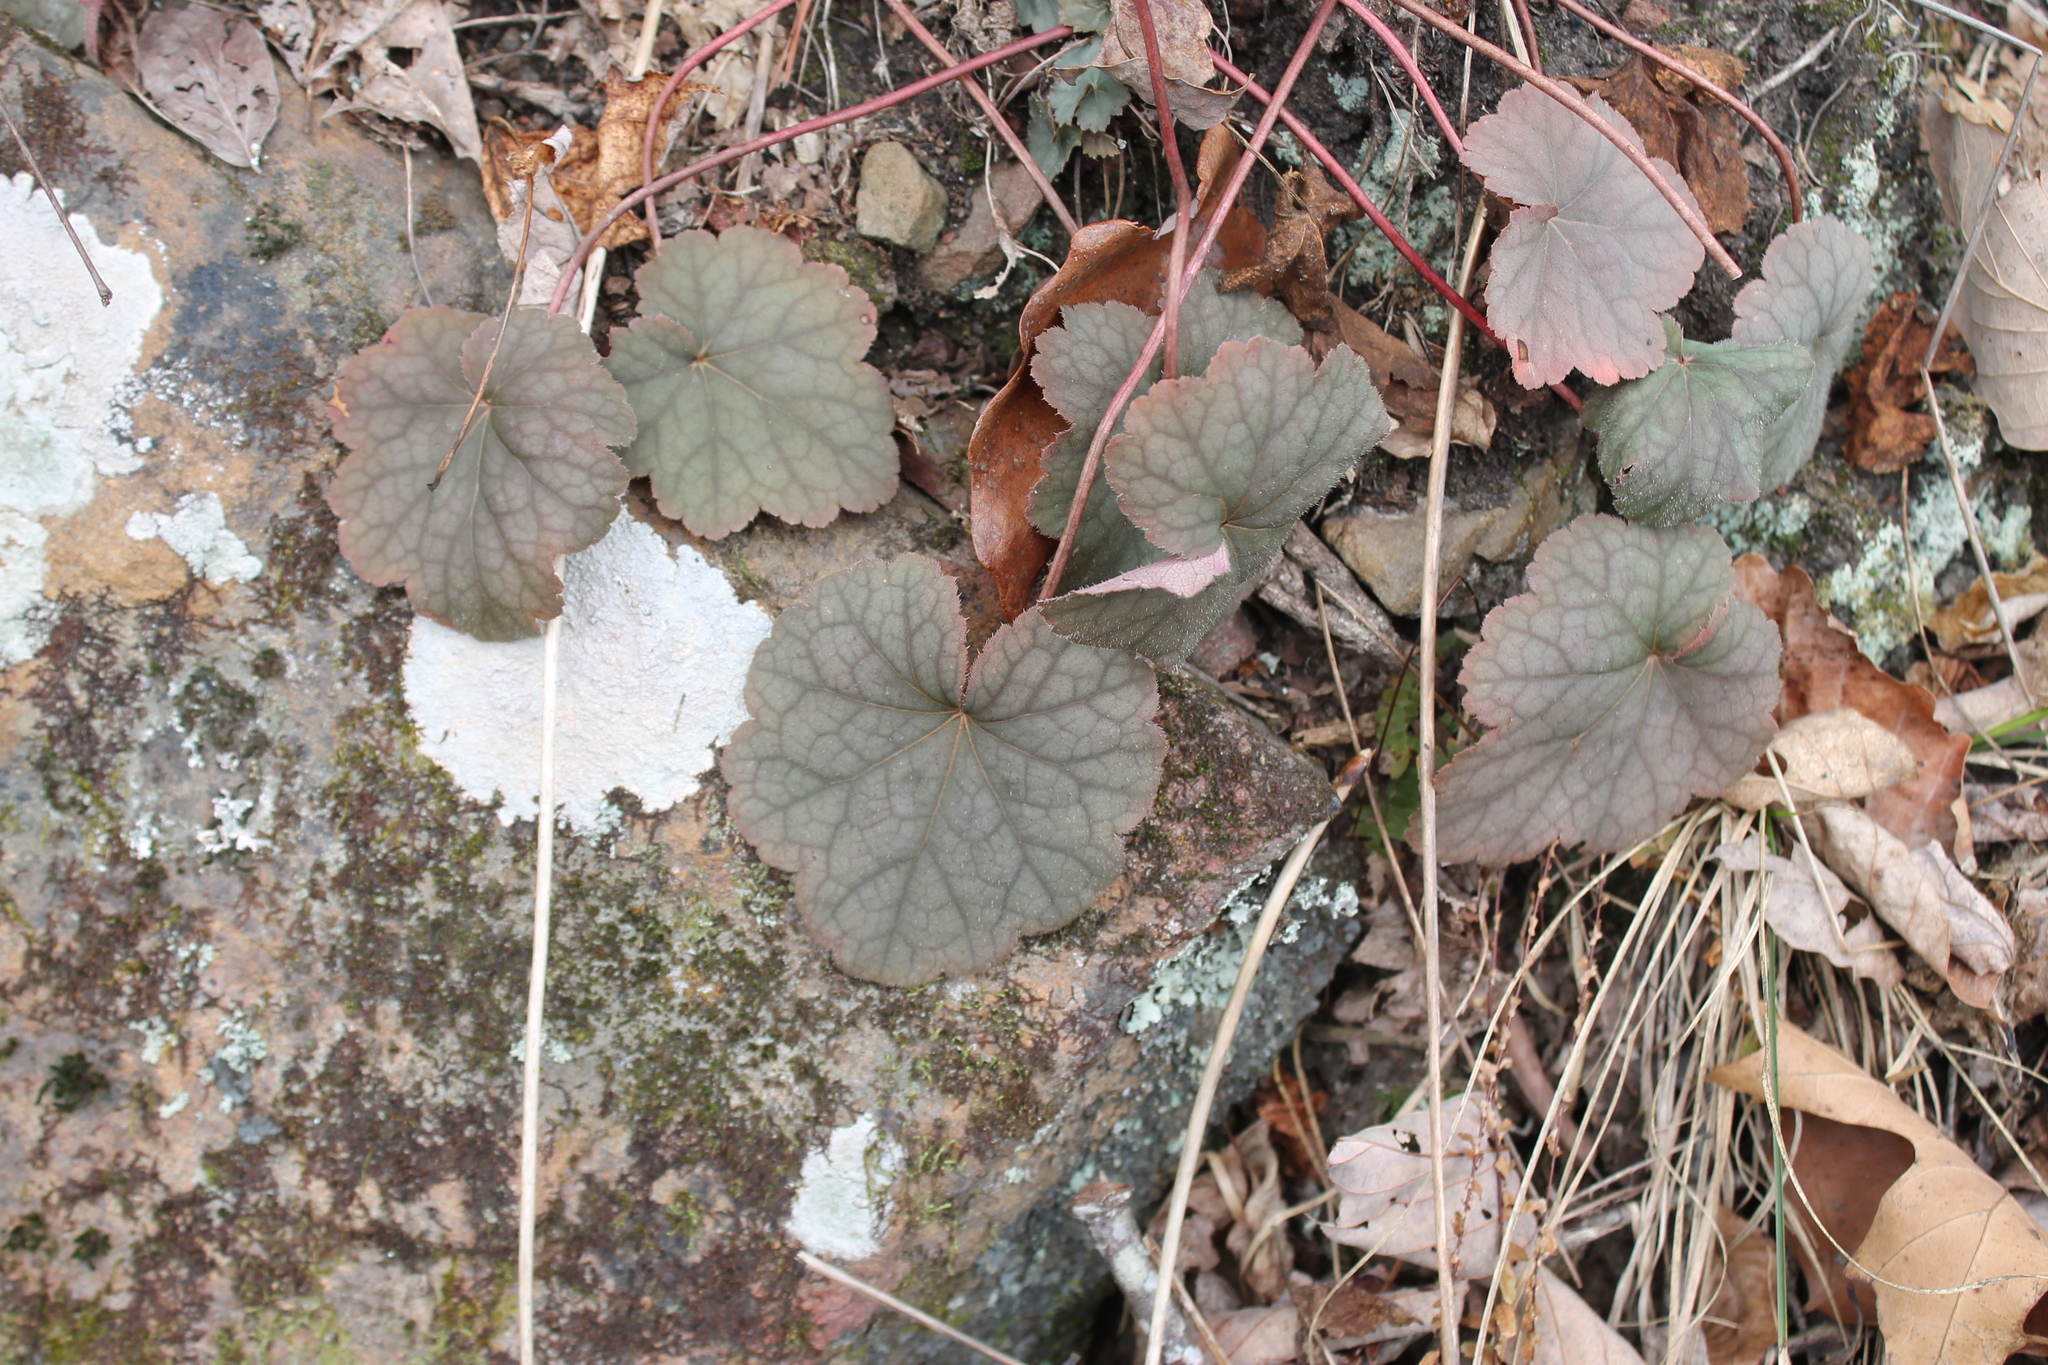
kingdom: Plantae
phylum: Tracheophyta
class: Magnoliopsida
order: Saxifragales
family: Saxifragaceae
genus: Heuchera
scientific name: Heuchera americana
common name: Alumroot
